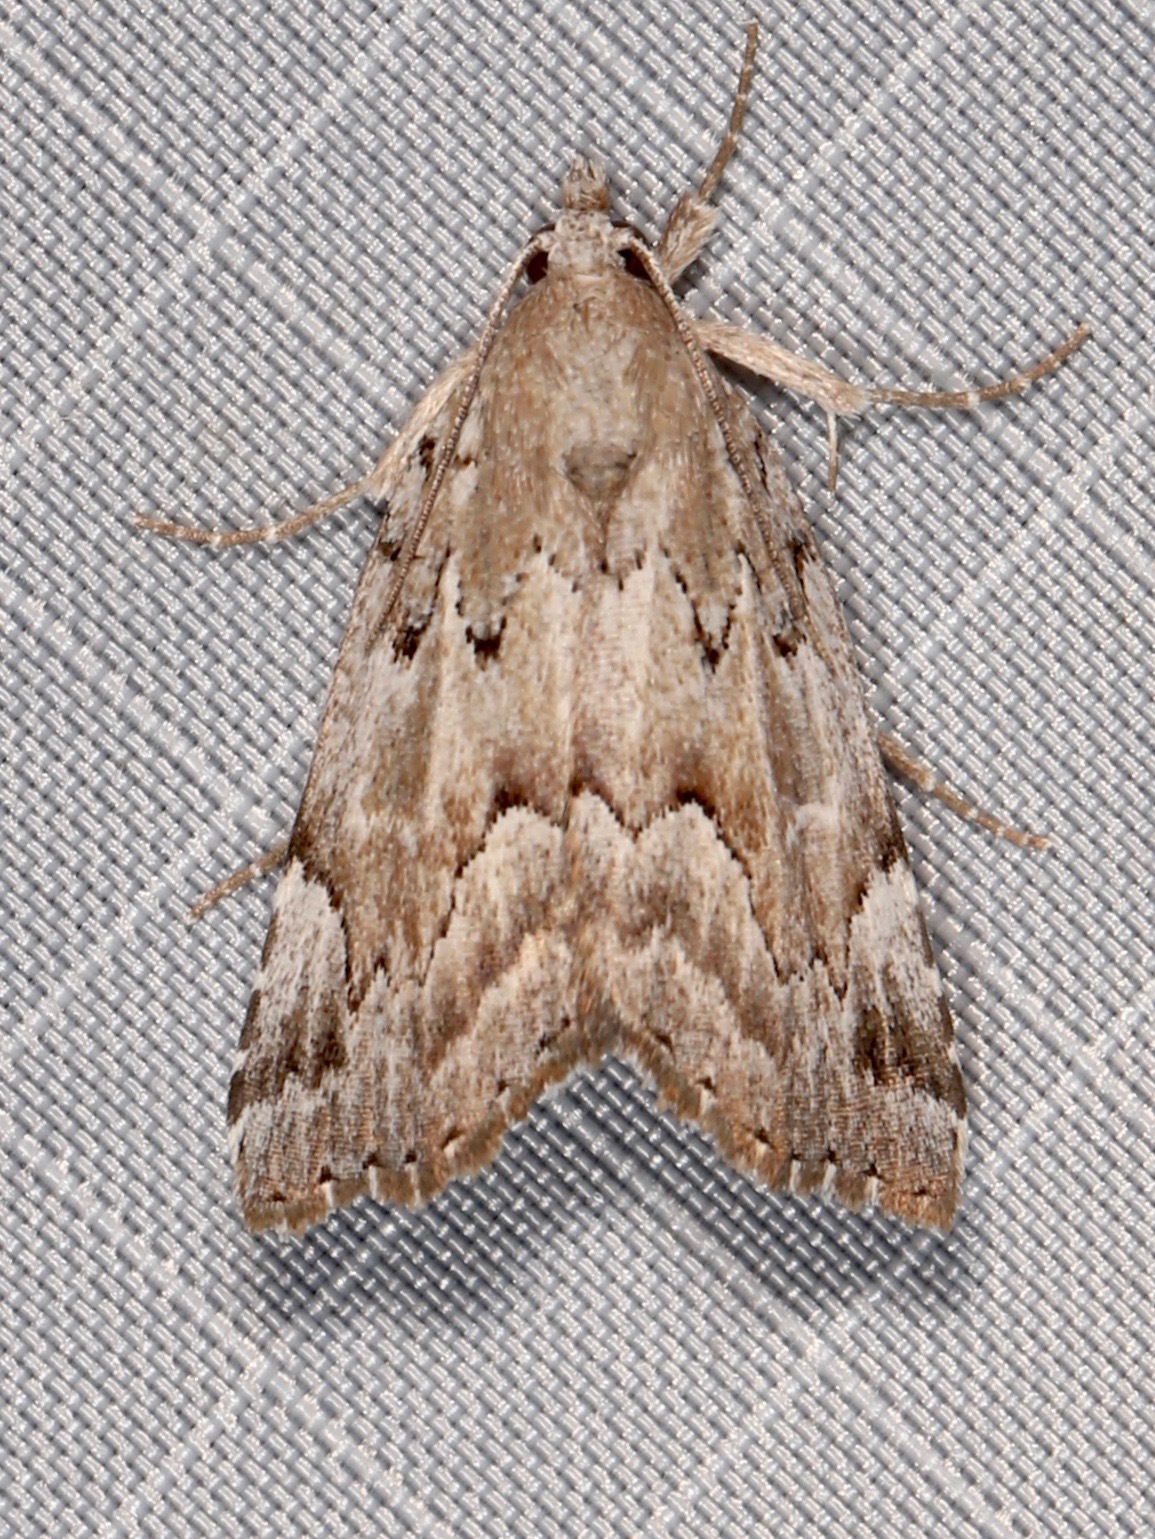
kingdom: Animalia
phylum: Arthropoda
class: Insecta
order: Lepidoptera
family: Erebidae
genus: Cutina
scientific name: Cutina albopunctella
